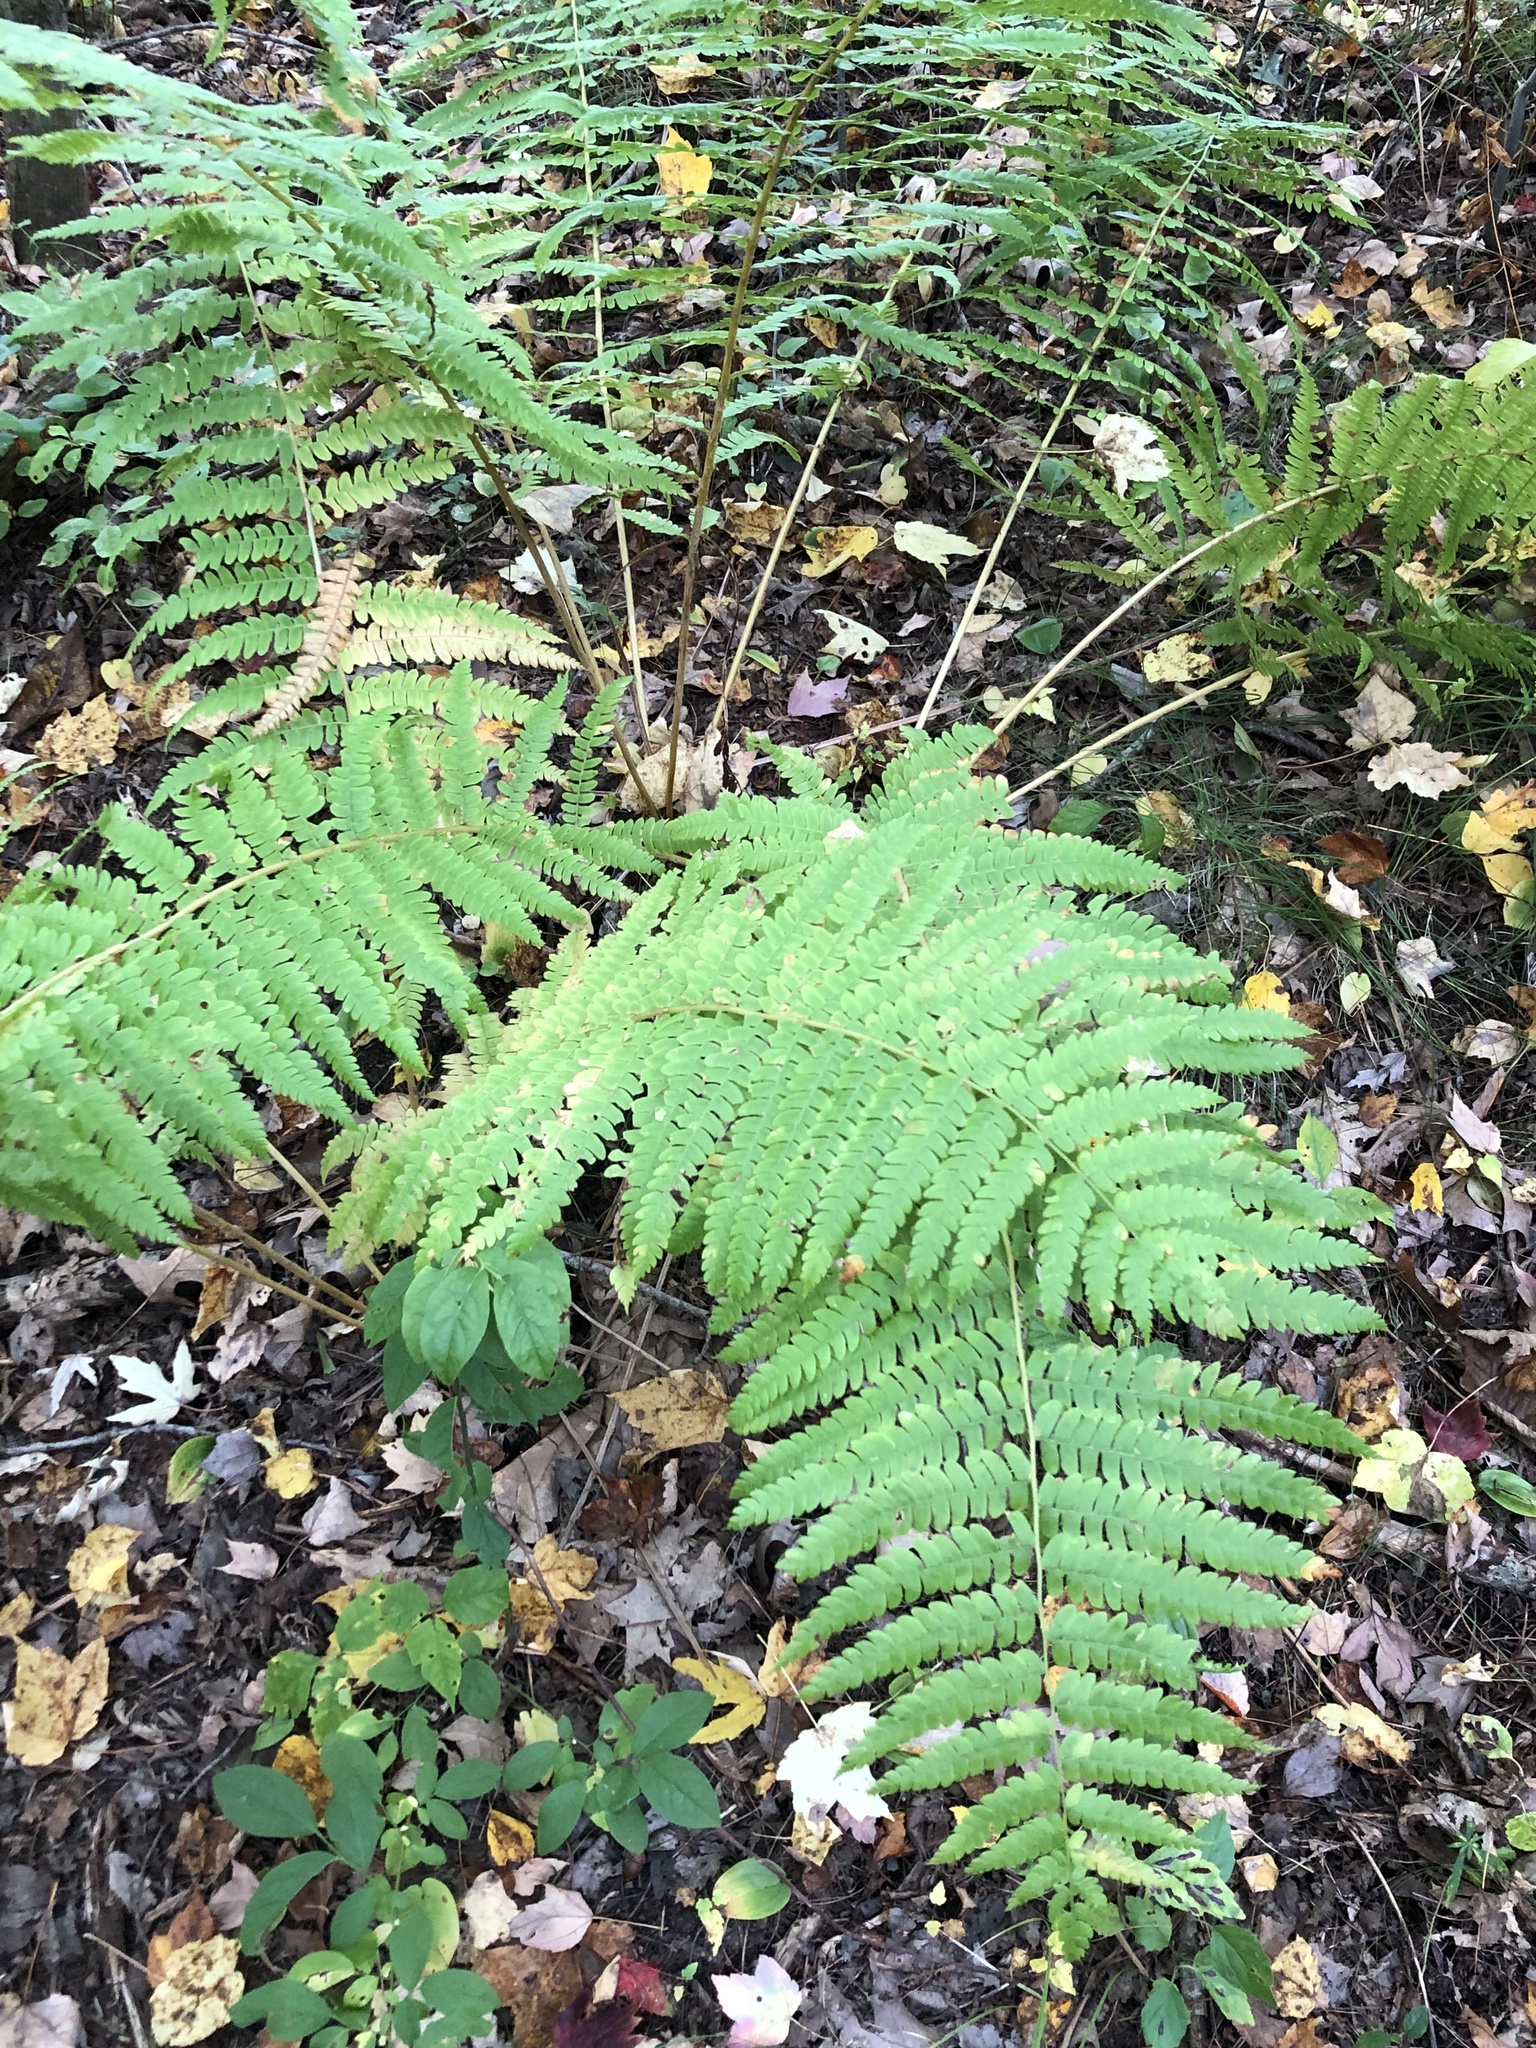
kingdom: Plantae
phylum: Tracheophyta
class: Polypodiopsida
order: Osmundales
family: Osmundaceae
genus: Osmundastrum
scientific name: Osmundastrum cinnamomeum
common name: Cinnamon fern
